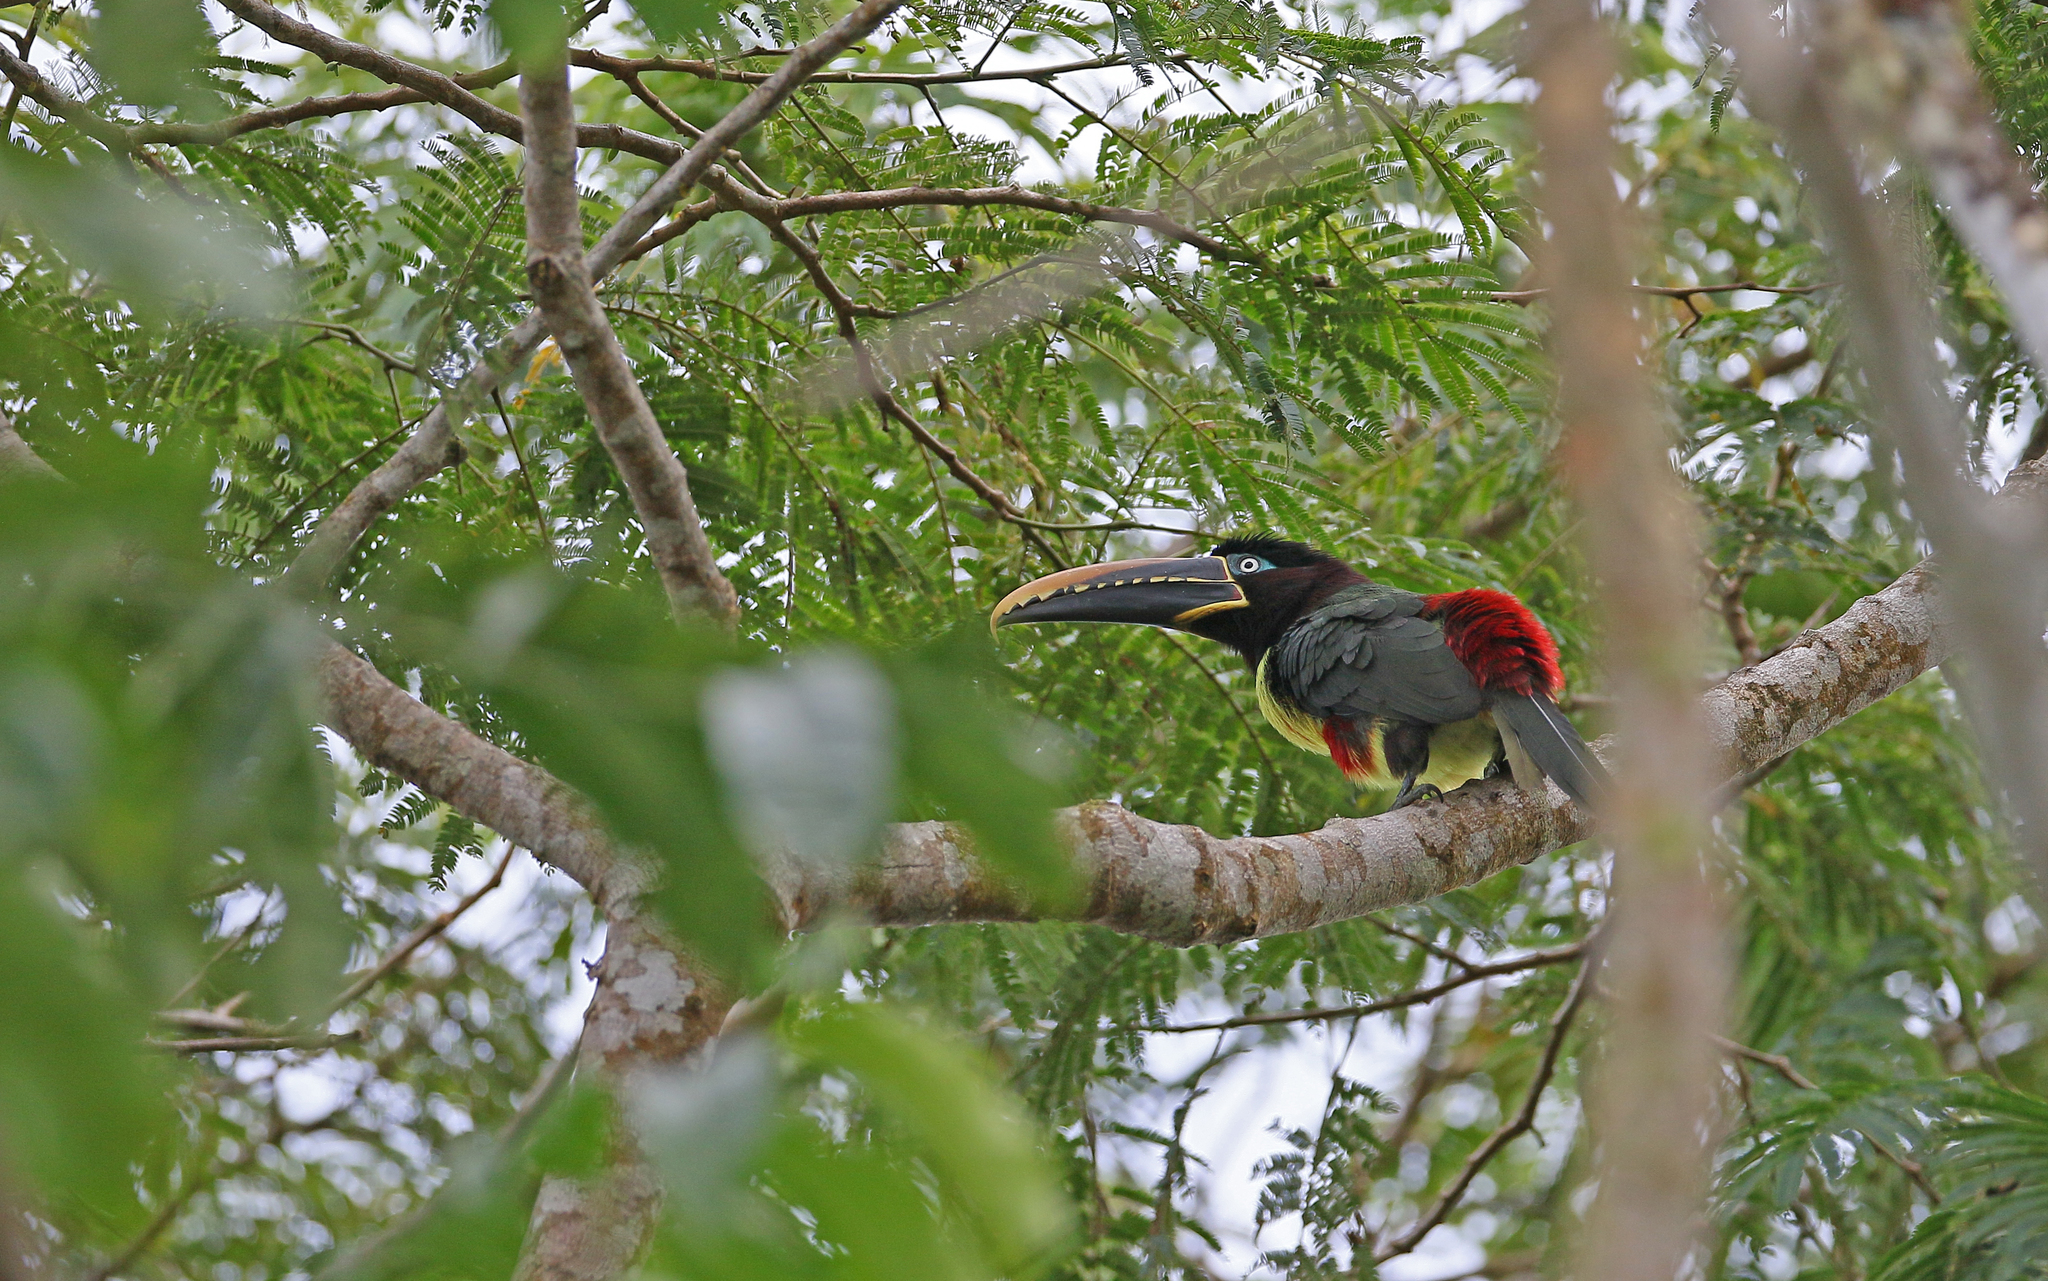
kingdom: Animalia
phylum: Chordata
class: Aves
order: Piciformes
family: Ramphastidae
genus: Pteroglossus
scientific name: Pteroglossus castanotis
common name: Chestnut-eared aracari
